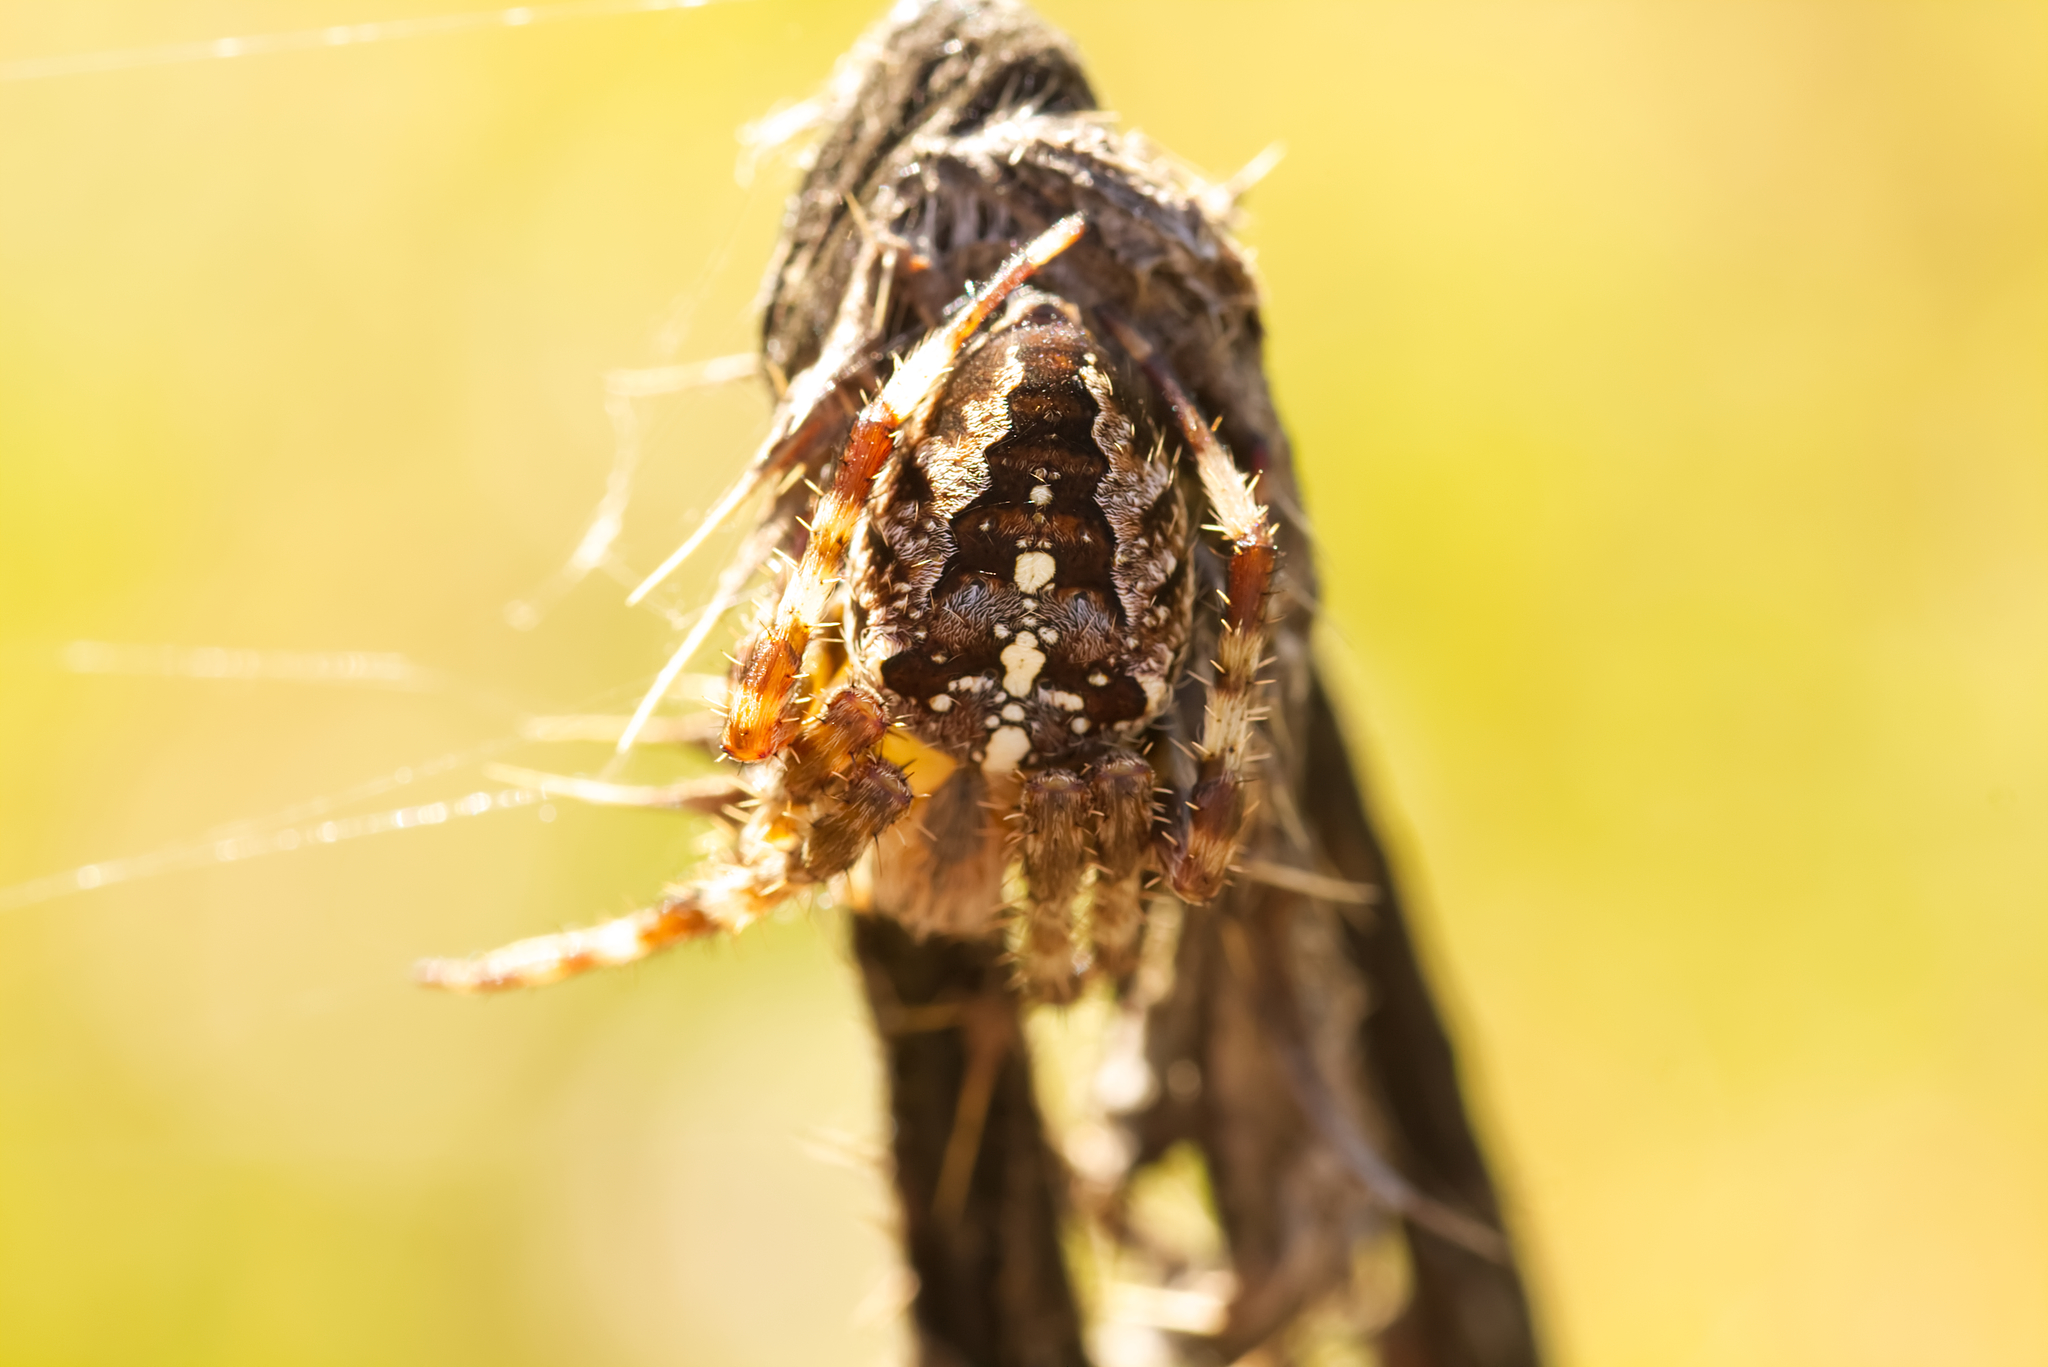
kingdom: Animalia
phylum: Arthropoda
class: Arachnida
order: Araneae
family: Araneidae
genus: Araneus
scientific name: Araneus diadematus
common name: Cross orbweaver
